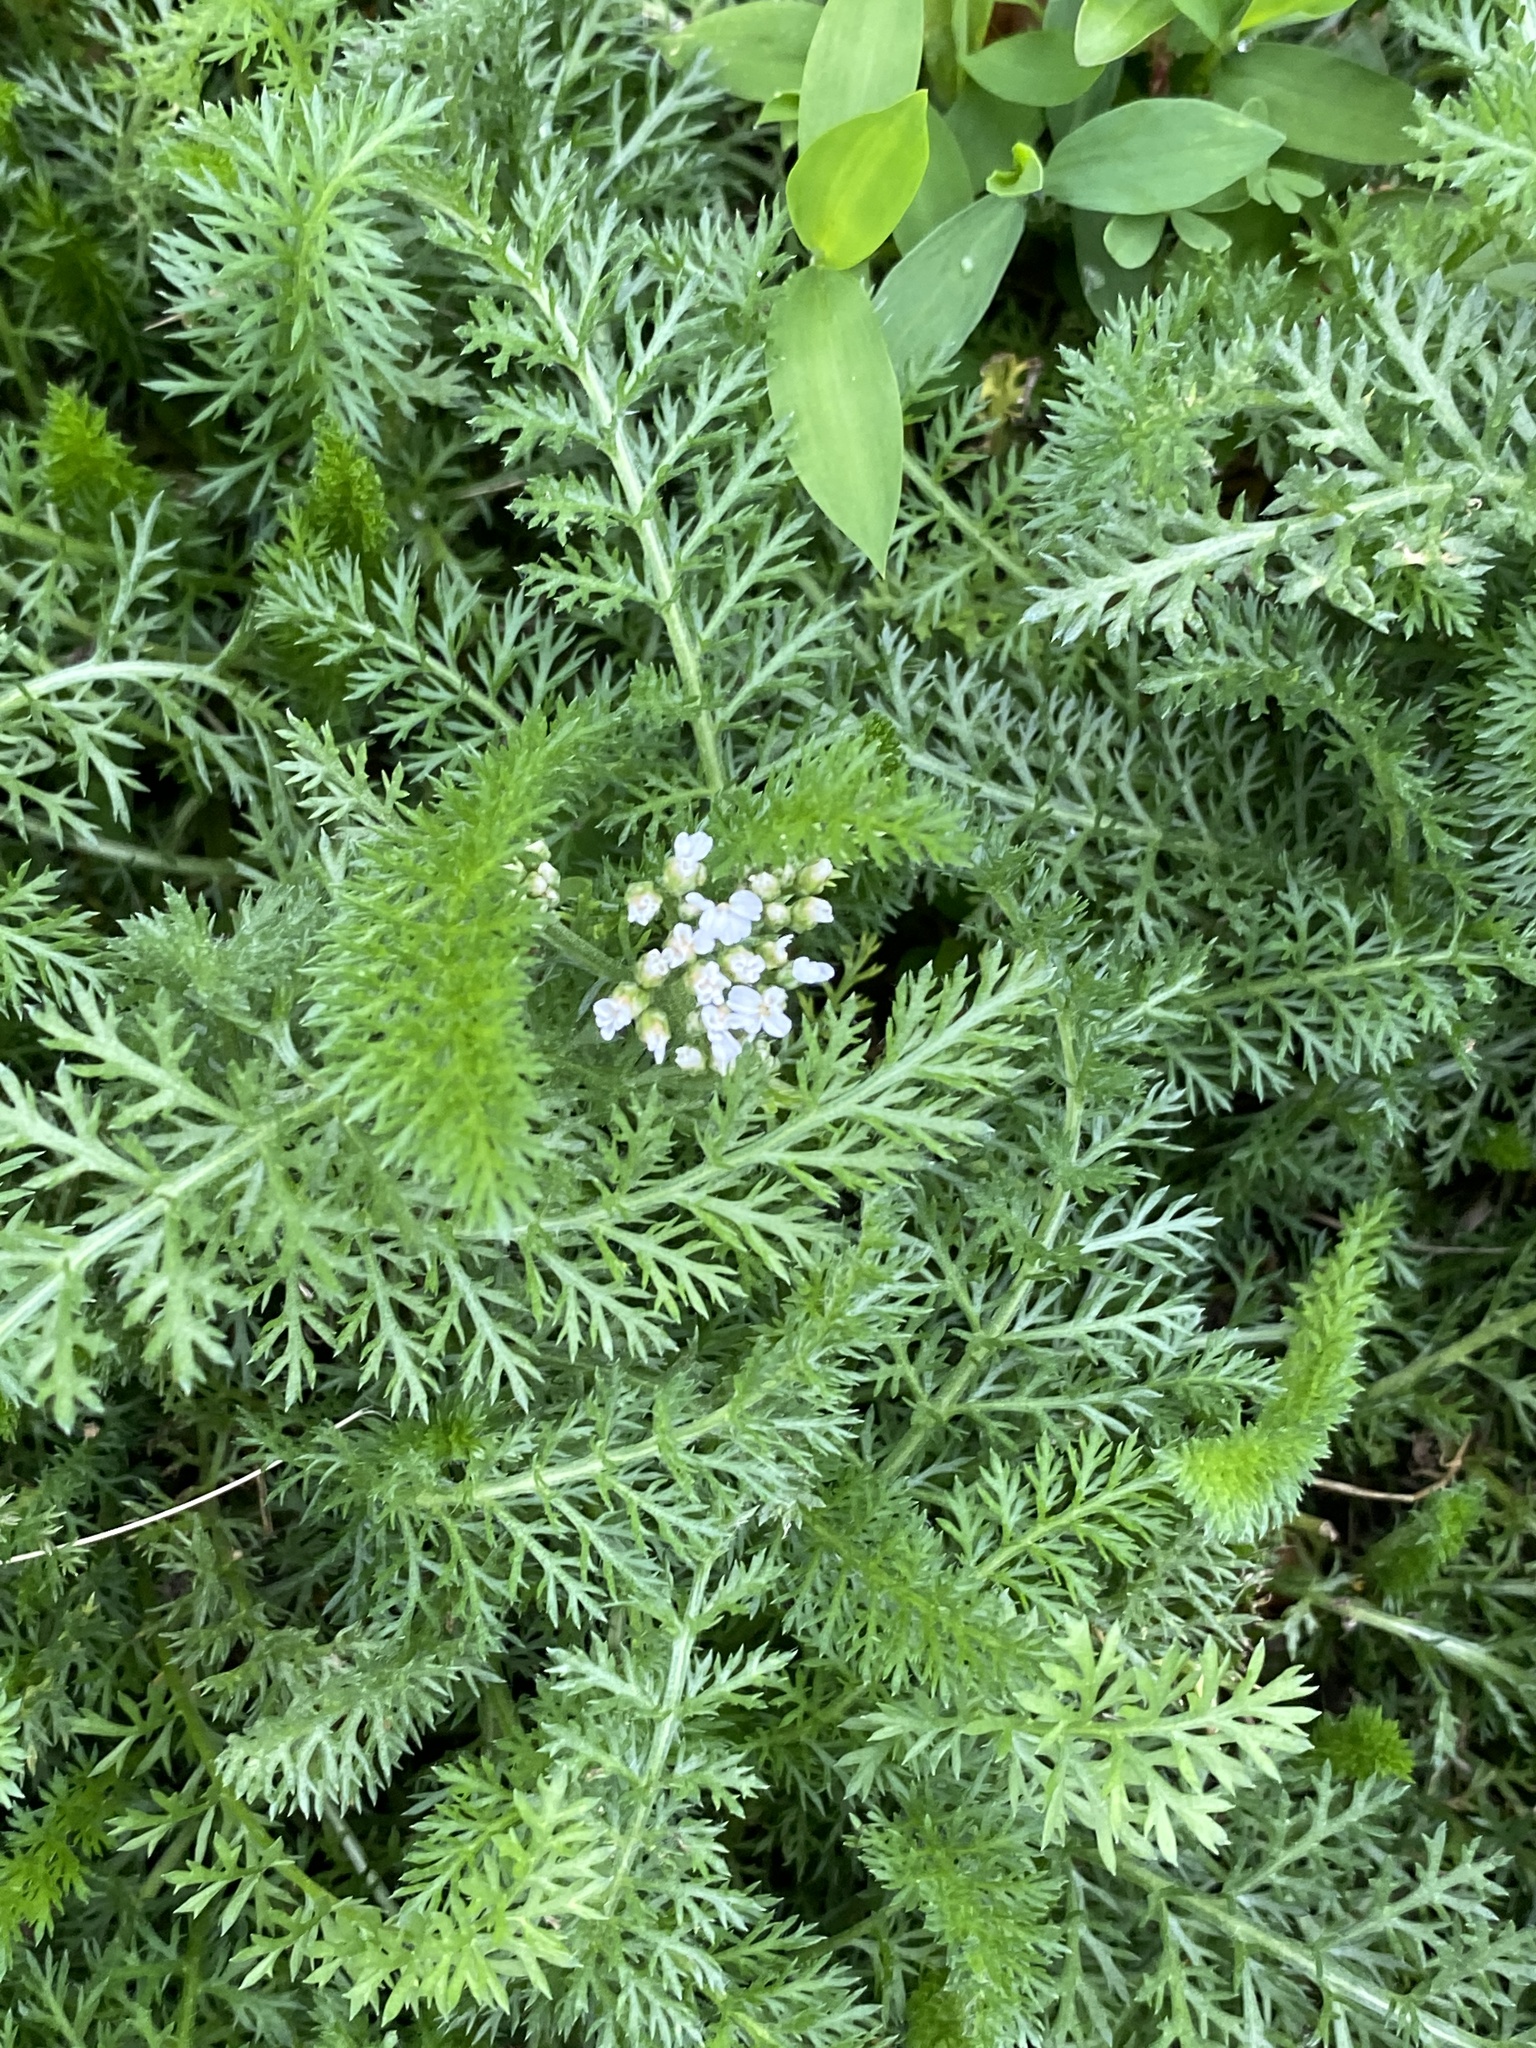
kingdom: Plantae
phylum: Tracheophyta
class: Magnoliopsida
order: Asterales
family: Asteraceae
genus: Achillea
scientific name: Achillea millefolium
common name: Yarrow
